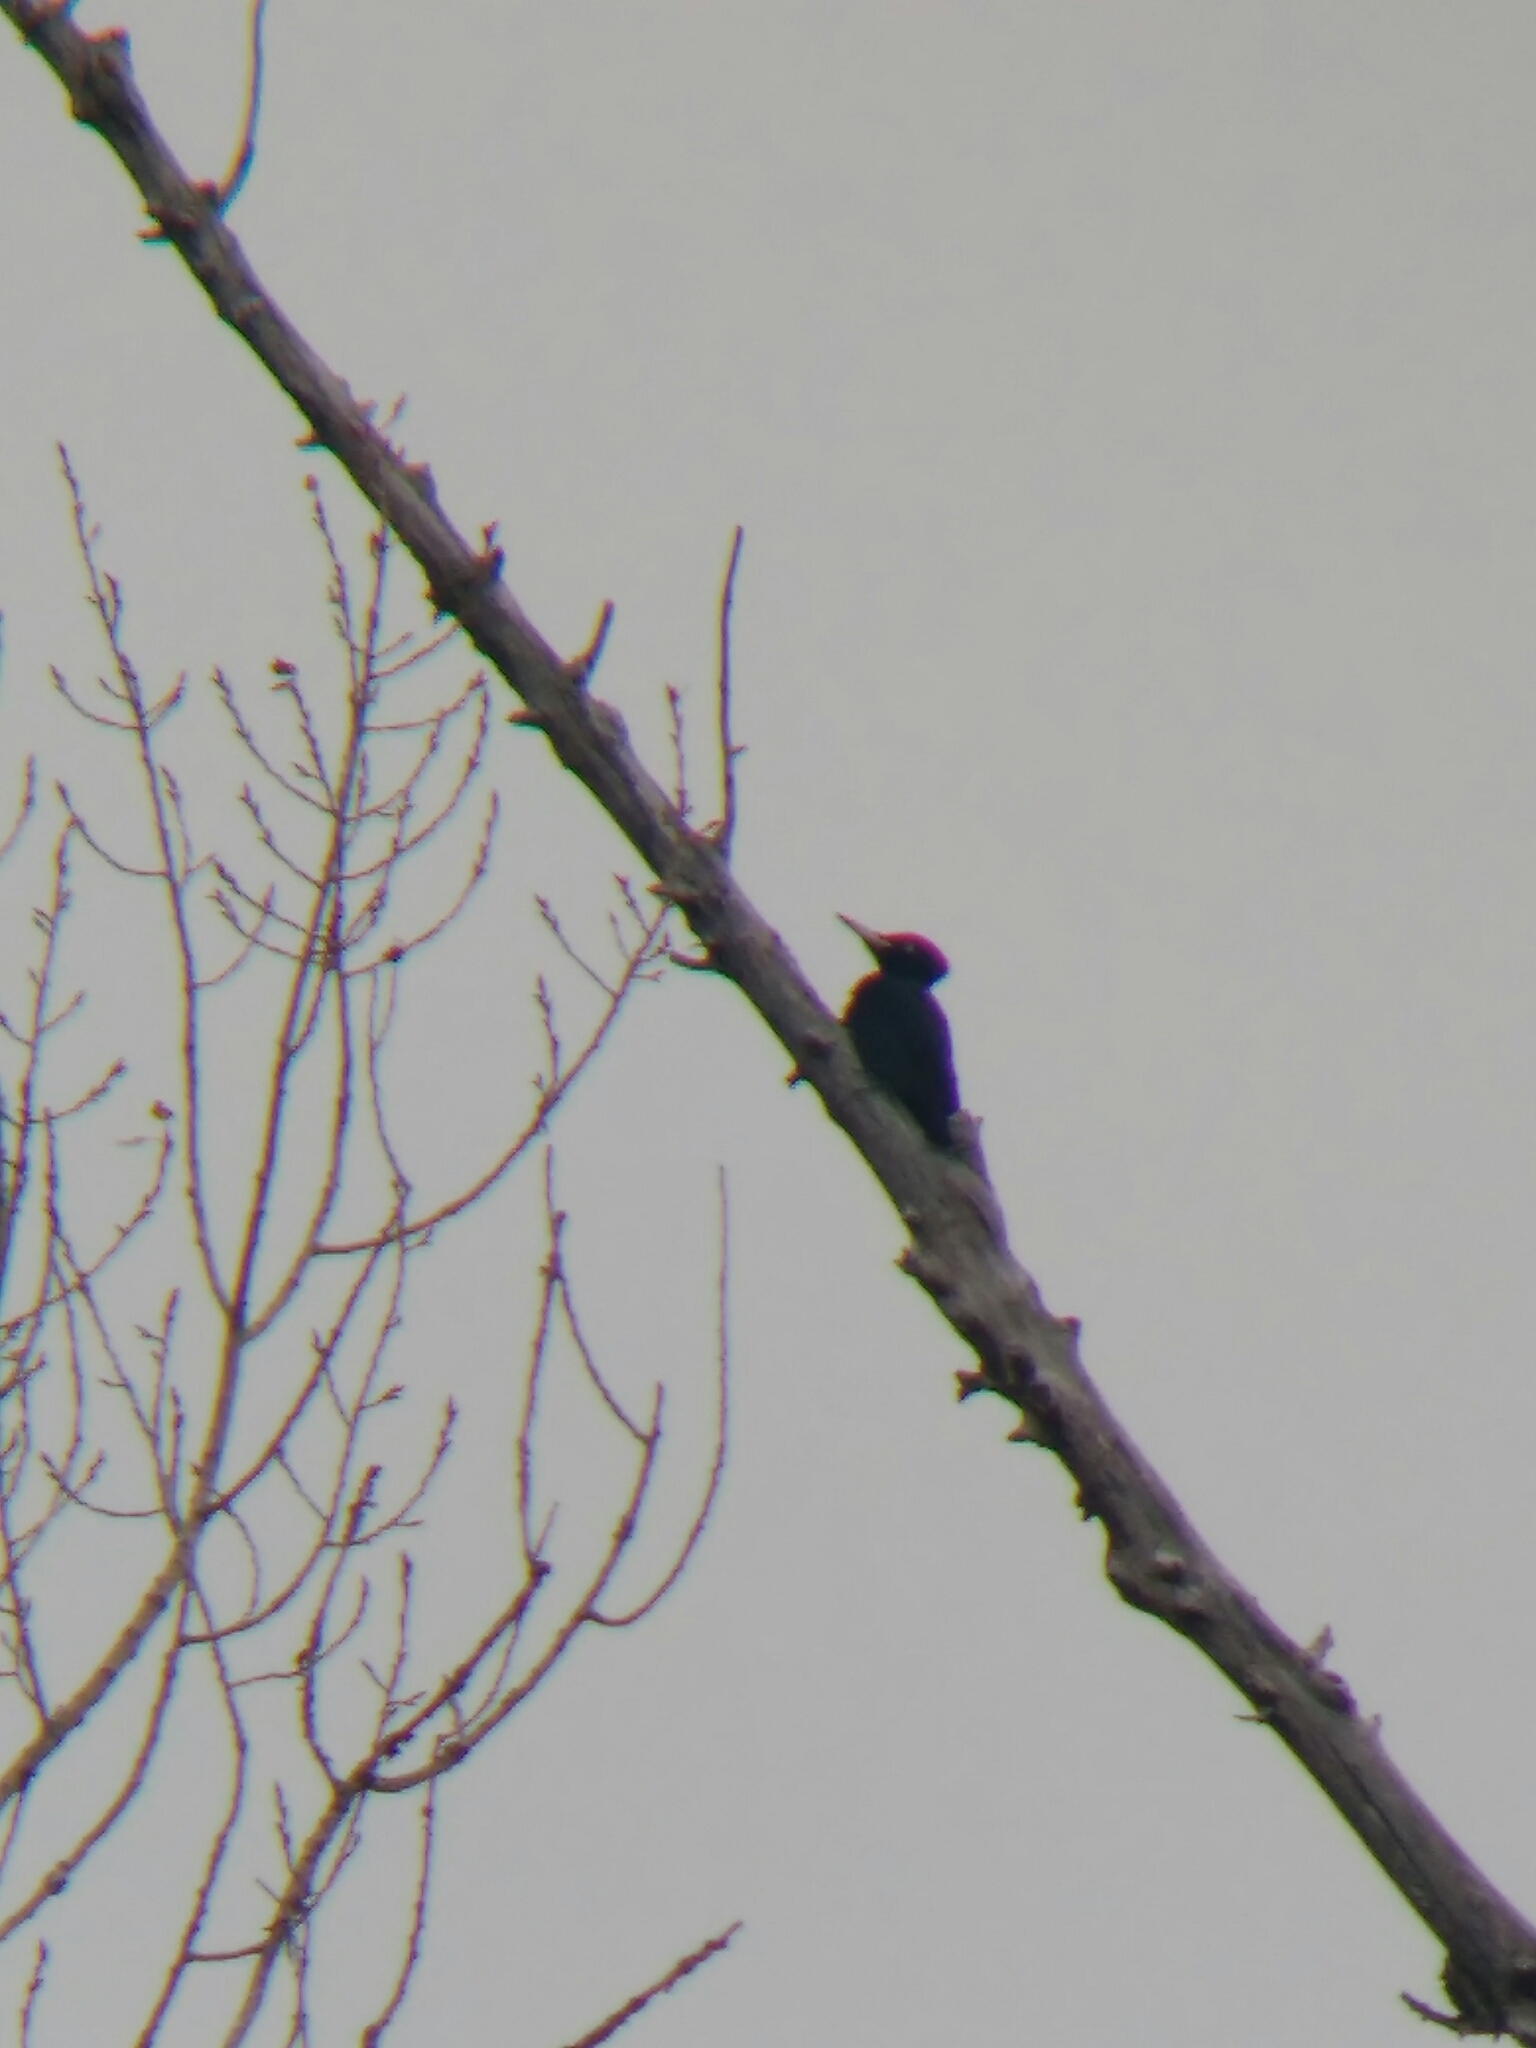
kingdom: Animalia
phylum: Chordata
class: Aves
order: Piciformes
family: Picidae
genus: Dryocopus
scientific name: Dryocopus martius
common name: Black woodpecker
